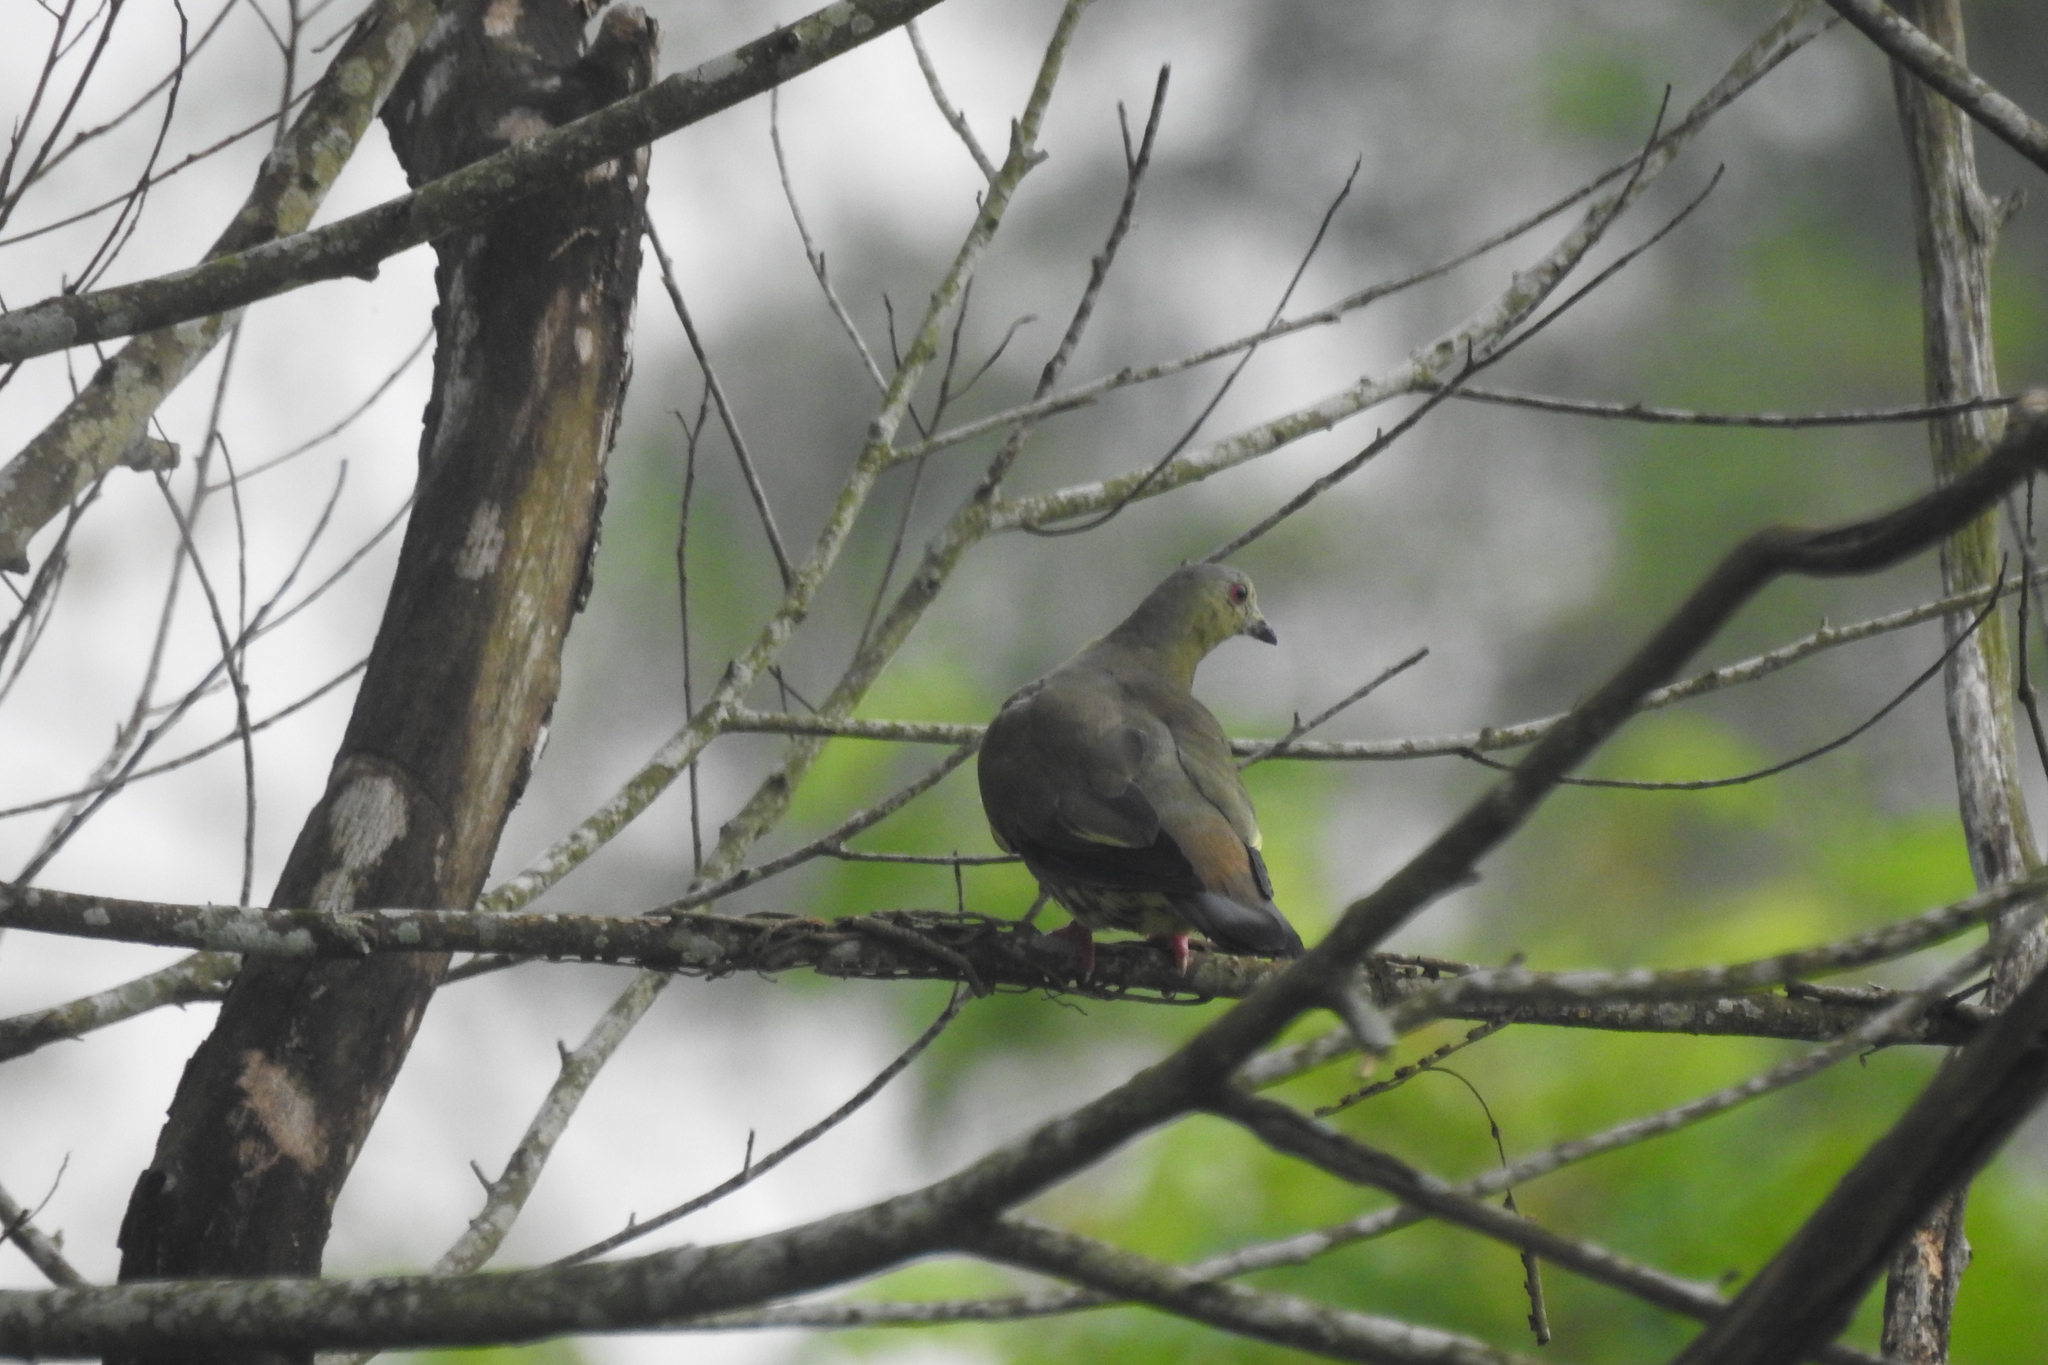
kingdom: Animalia
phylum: Chordata
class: Aves
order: Columbiformes
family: Columbidae
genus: Treron
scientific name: Treron vernans
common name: Pink-necked green pigeon
